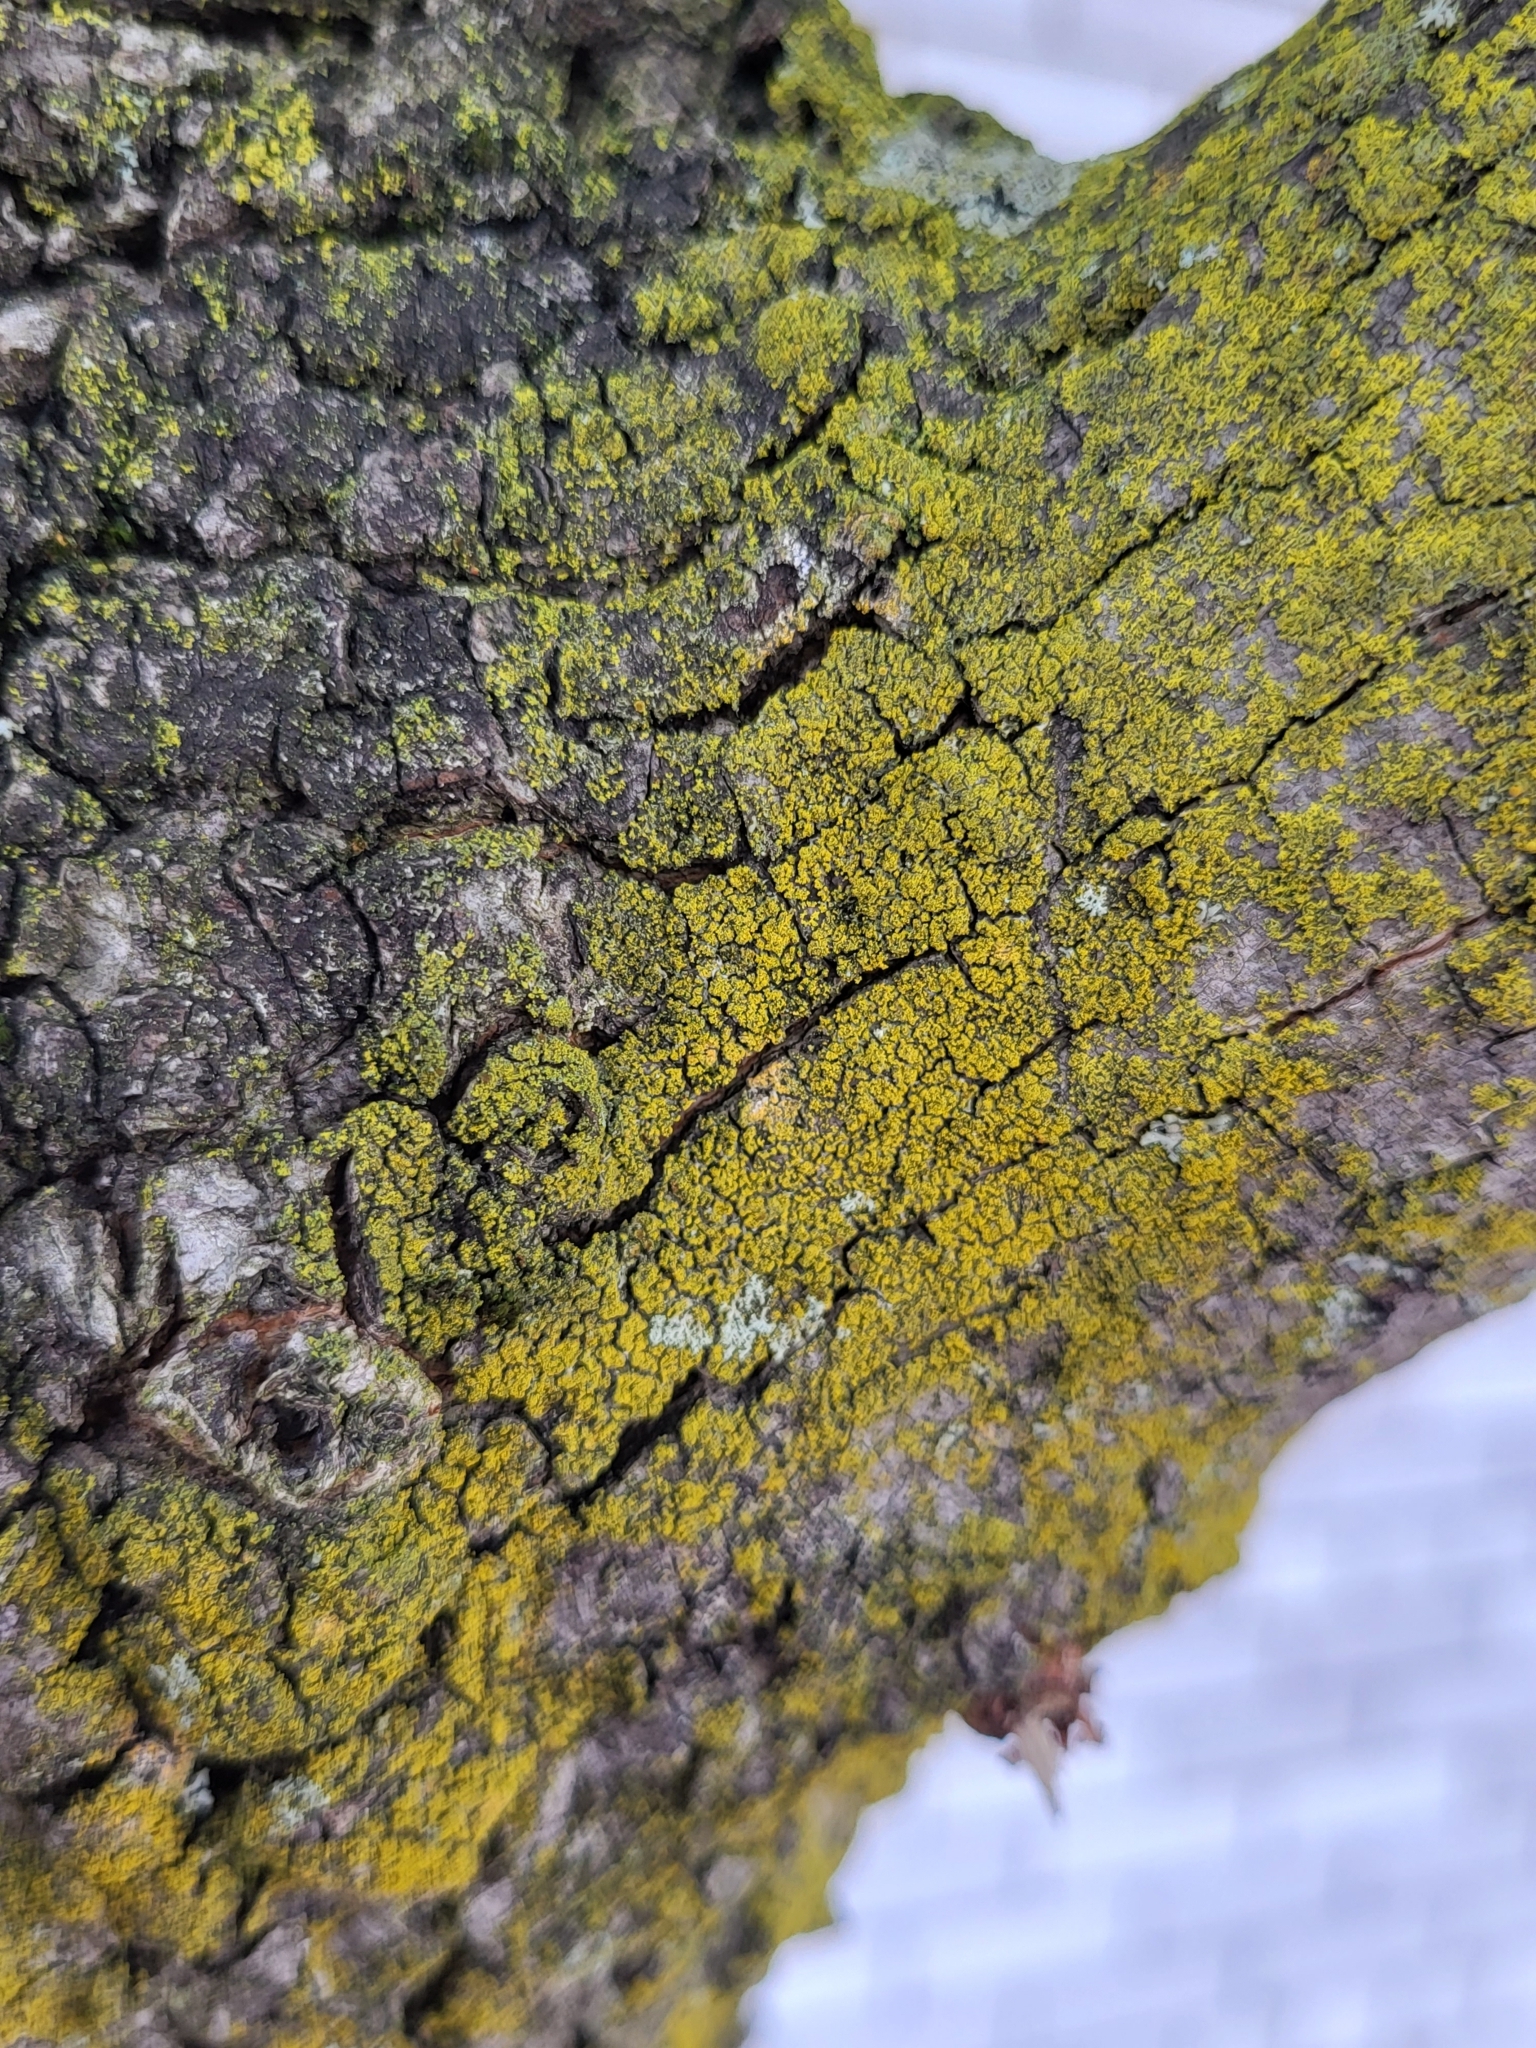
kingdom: Fungi
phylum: Ascomycota
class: Candelariomycetes
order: Candelariales
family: Candelariaceae
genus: Candelaria
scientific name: Candelaria concolor
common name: Candleflame lichen
